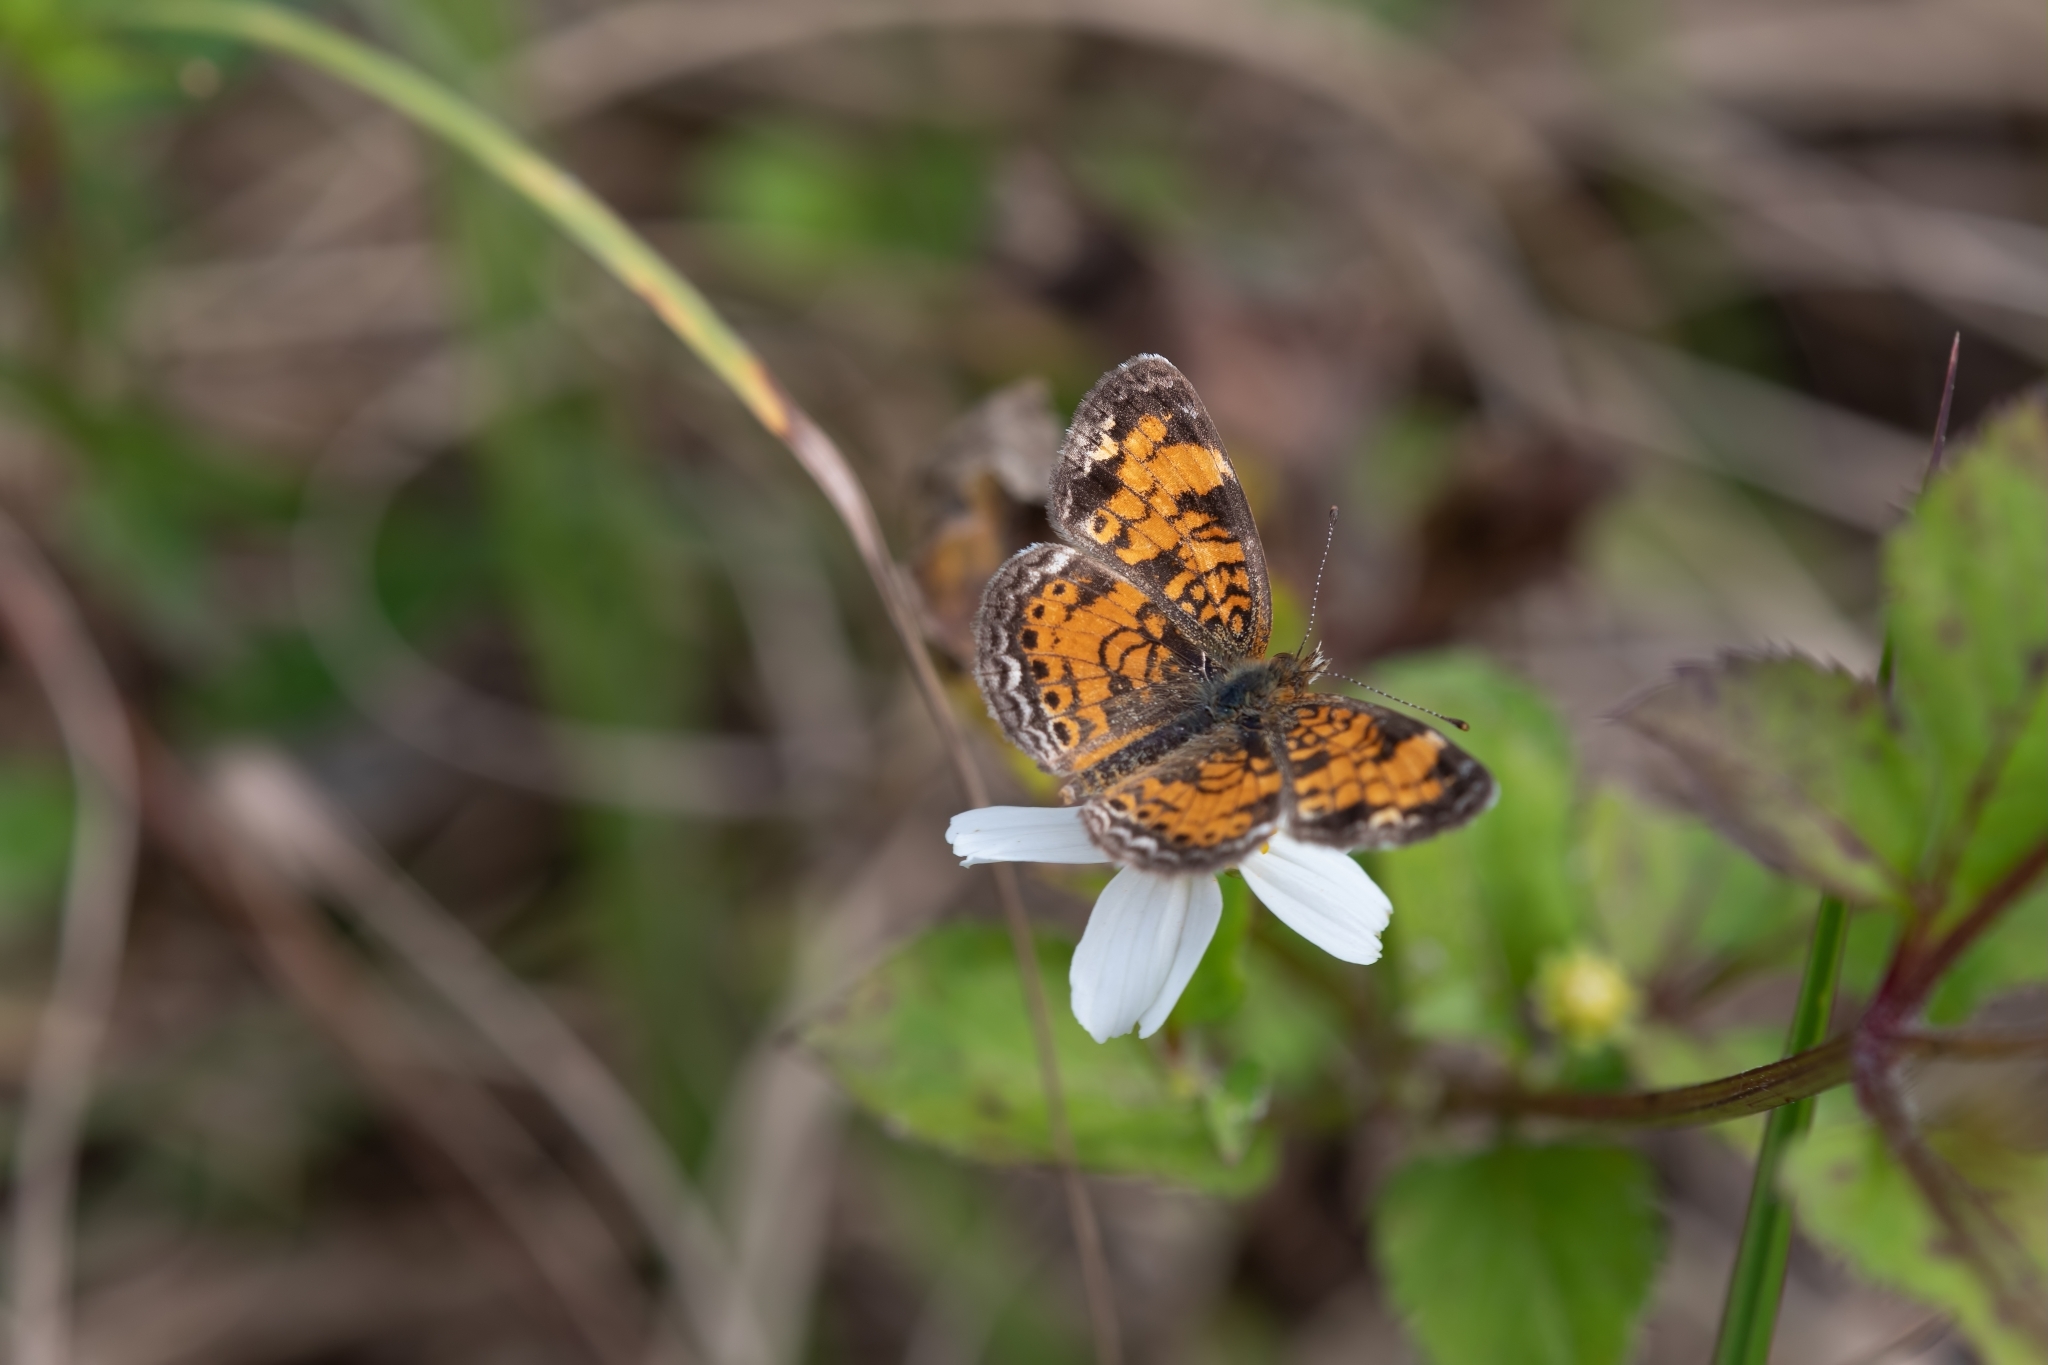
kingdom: Animalia
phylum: Arthropoda
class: Insecta
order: Lepidoptera
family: Nymphalidae
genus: Phyciodes
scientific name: Phyciodes tharos
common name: Pearl crescent
